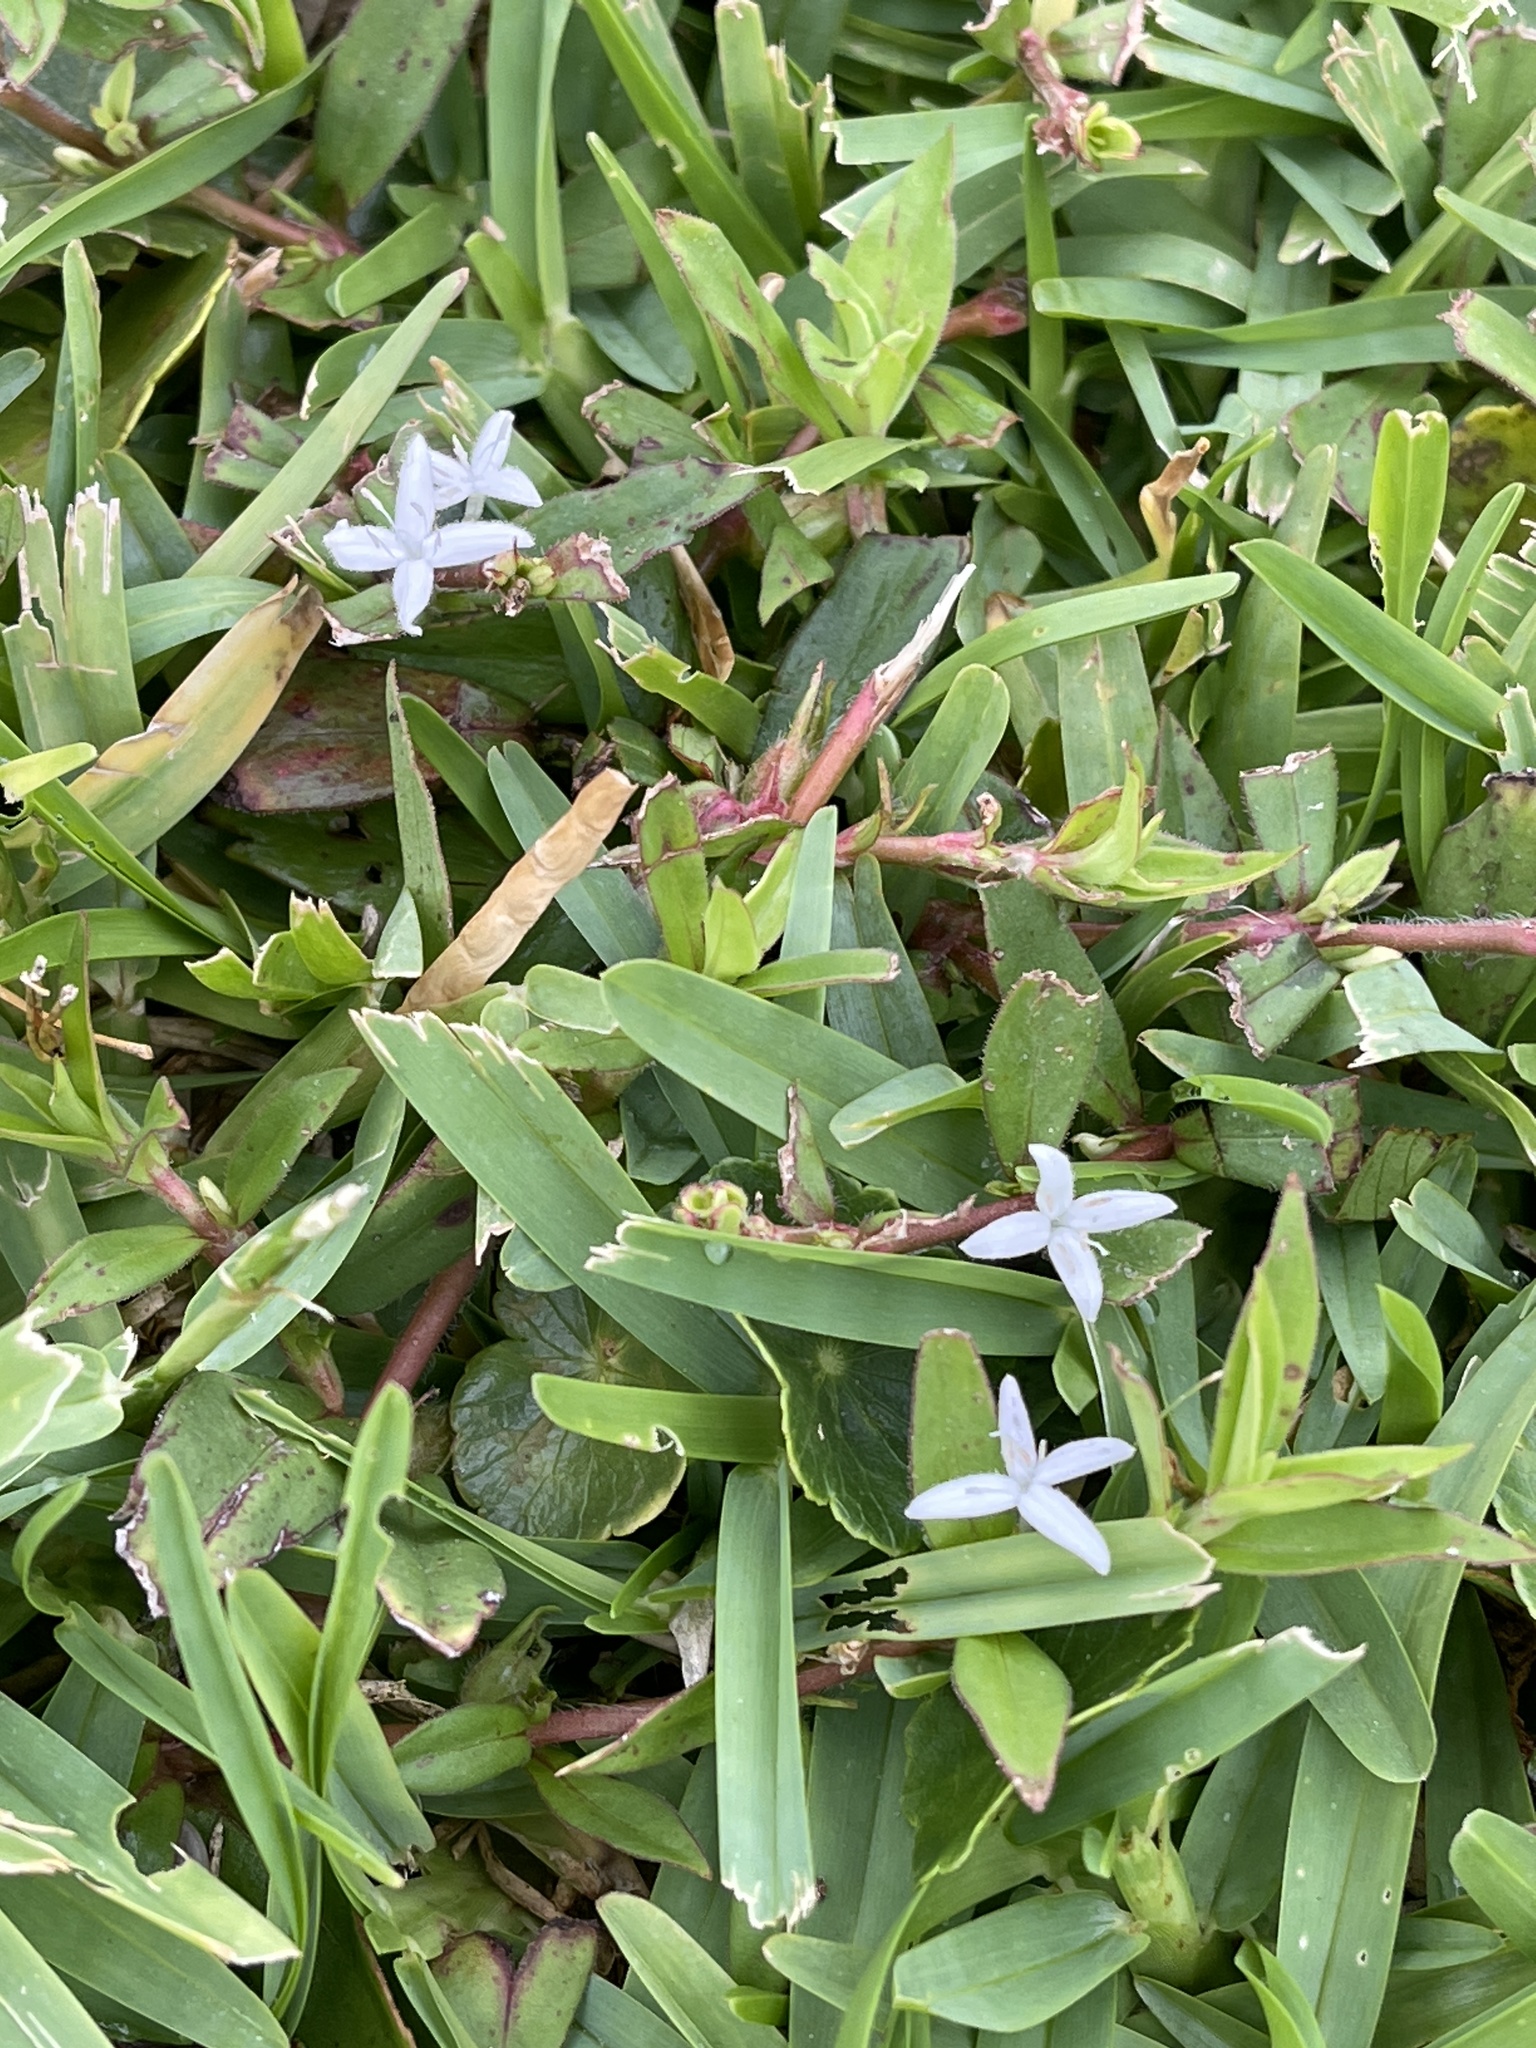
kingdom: Plantae
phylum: Tracheophyta
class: Magnoliopsida
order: Gentianales
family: Rubiaceae
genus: Diodia
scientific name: Diodia virginiana
